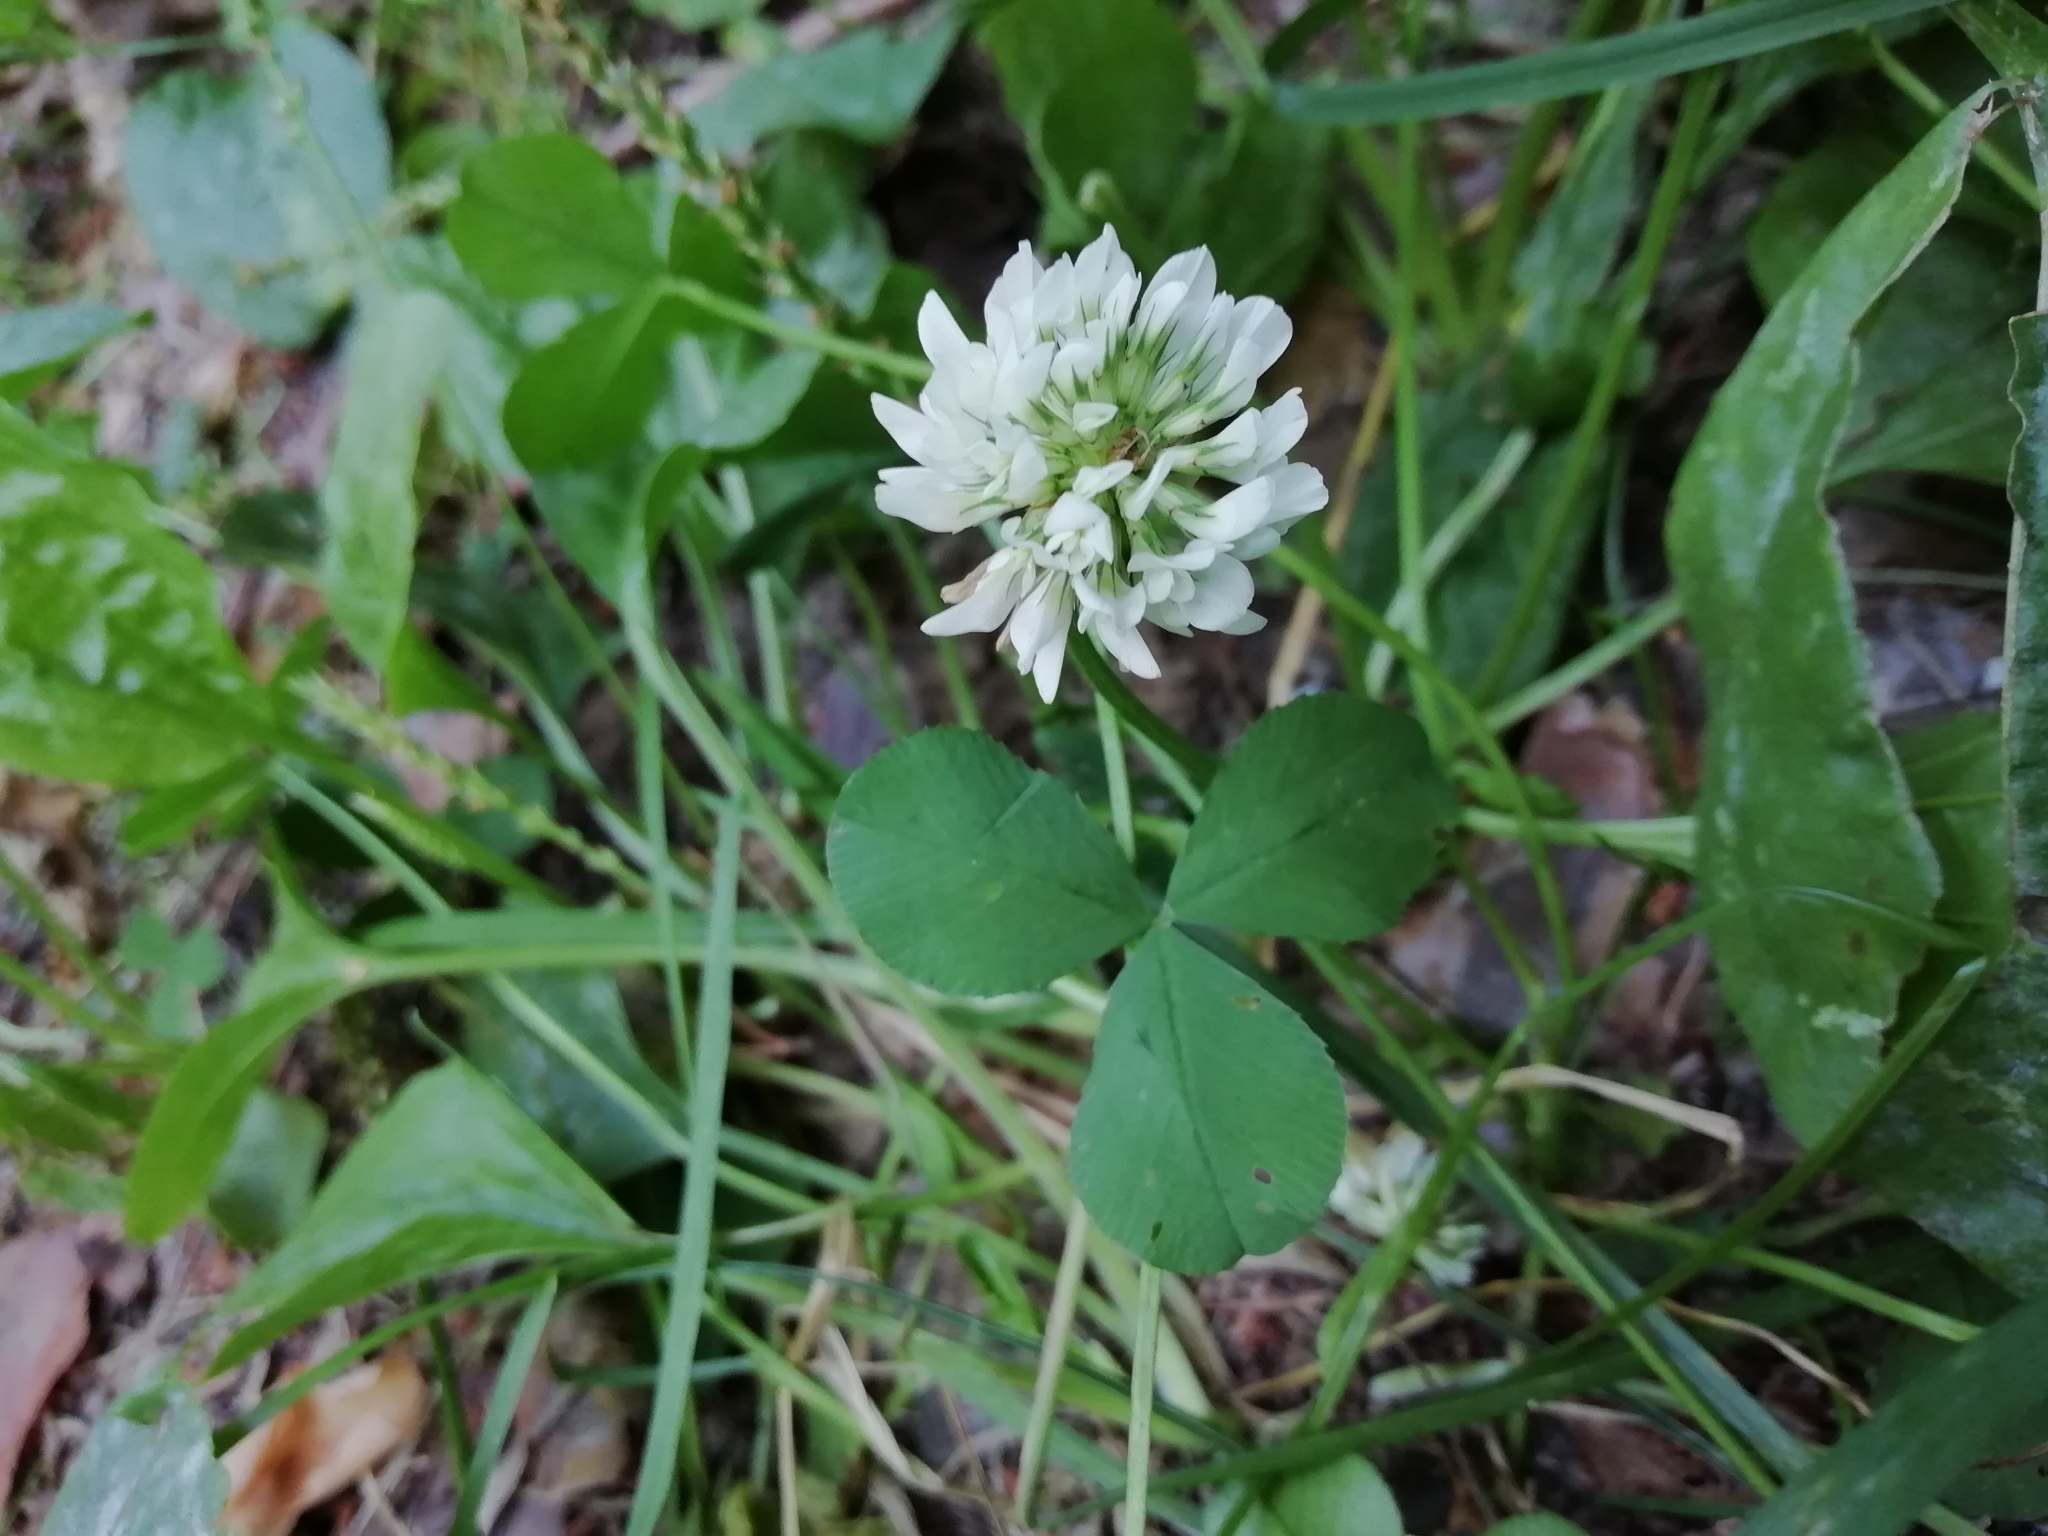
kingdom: Plantae
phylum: Tracheophyta
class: Magnoliopsida
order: Fabales
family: Fabaceae
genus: Trifolium
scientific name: Trifolium repens
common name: White clover
